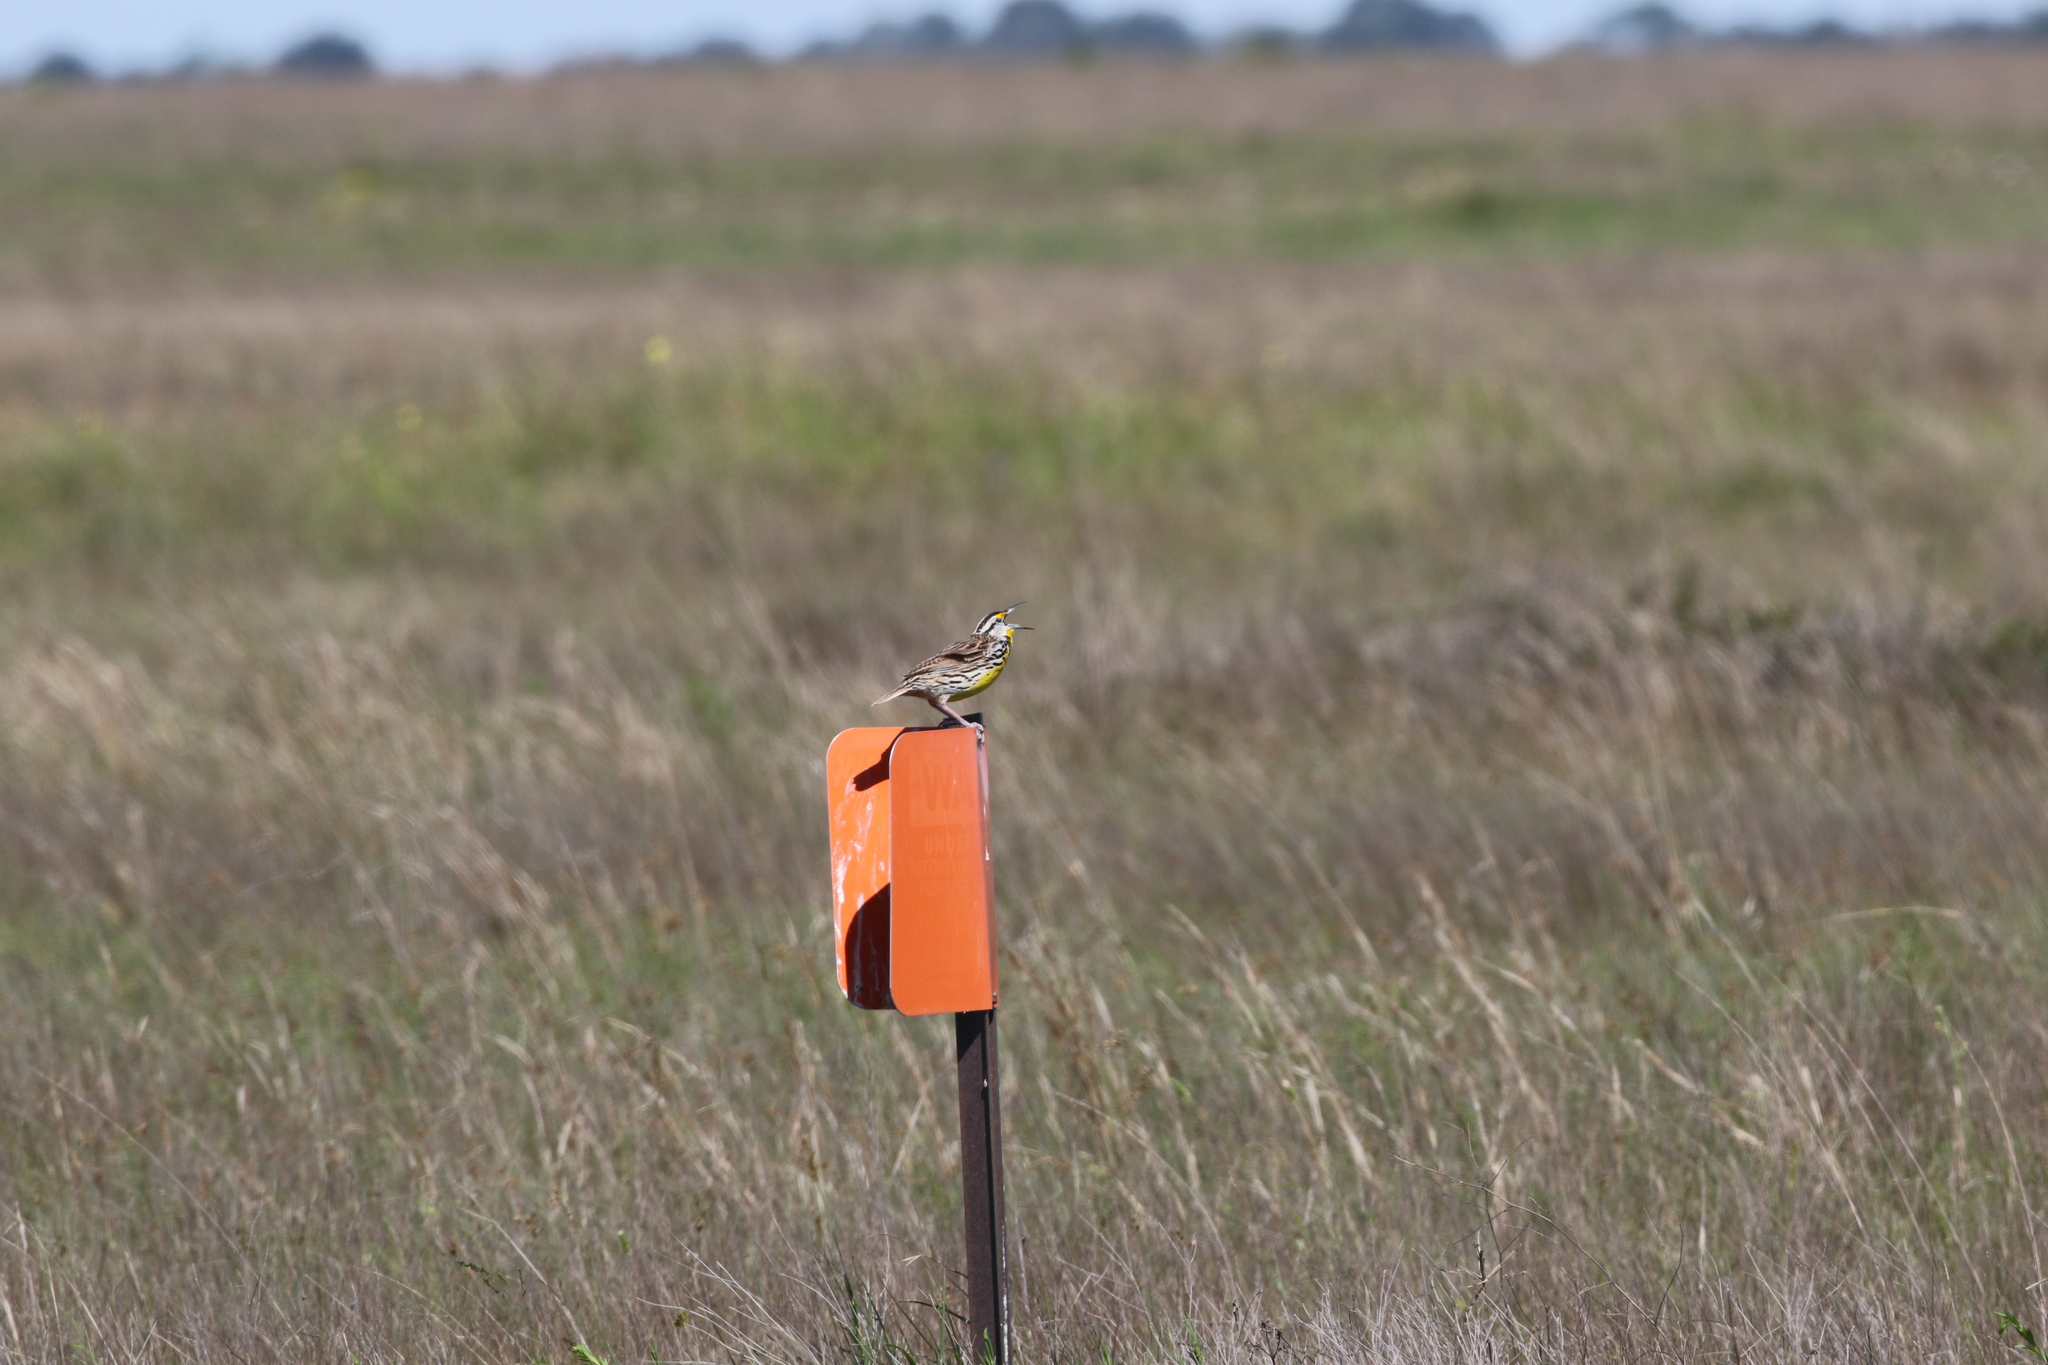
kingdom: Animalia
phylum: Chordata
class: Aves
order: Passeriformes
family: Icteridae
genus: Sturnella
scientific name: Sturnella magna
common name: Eastern meadowlark
